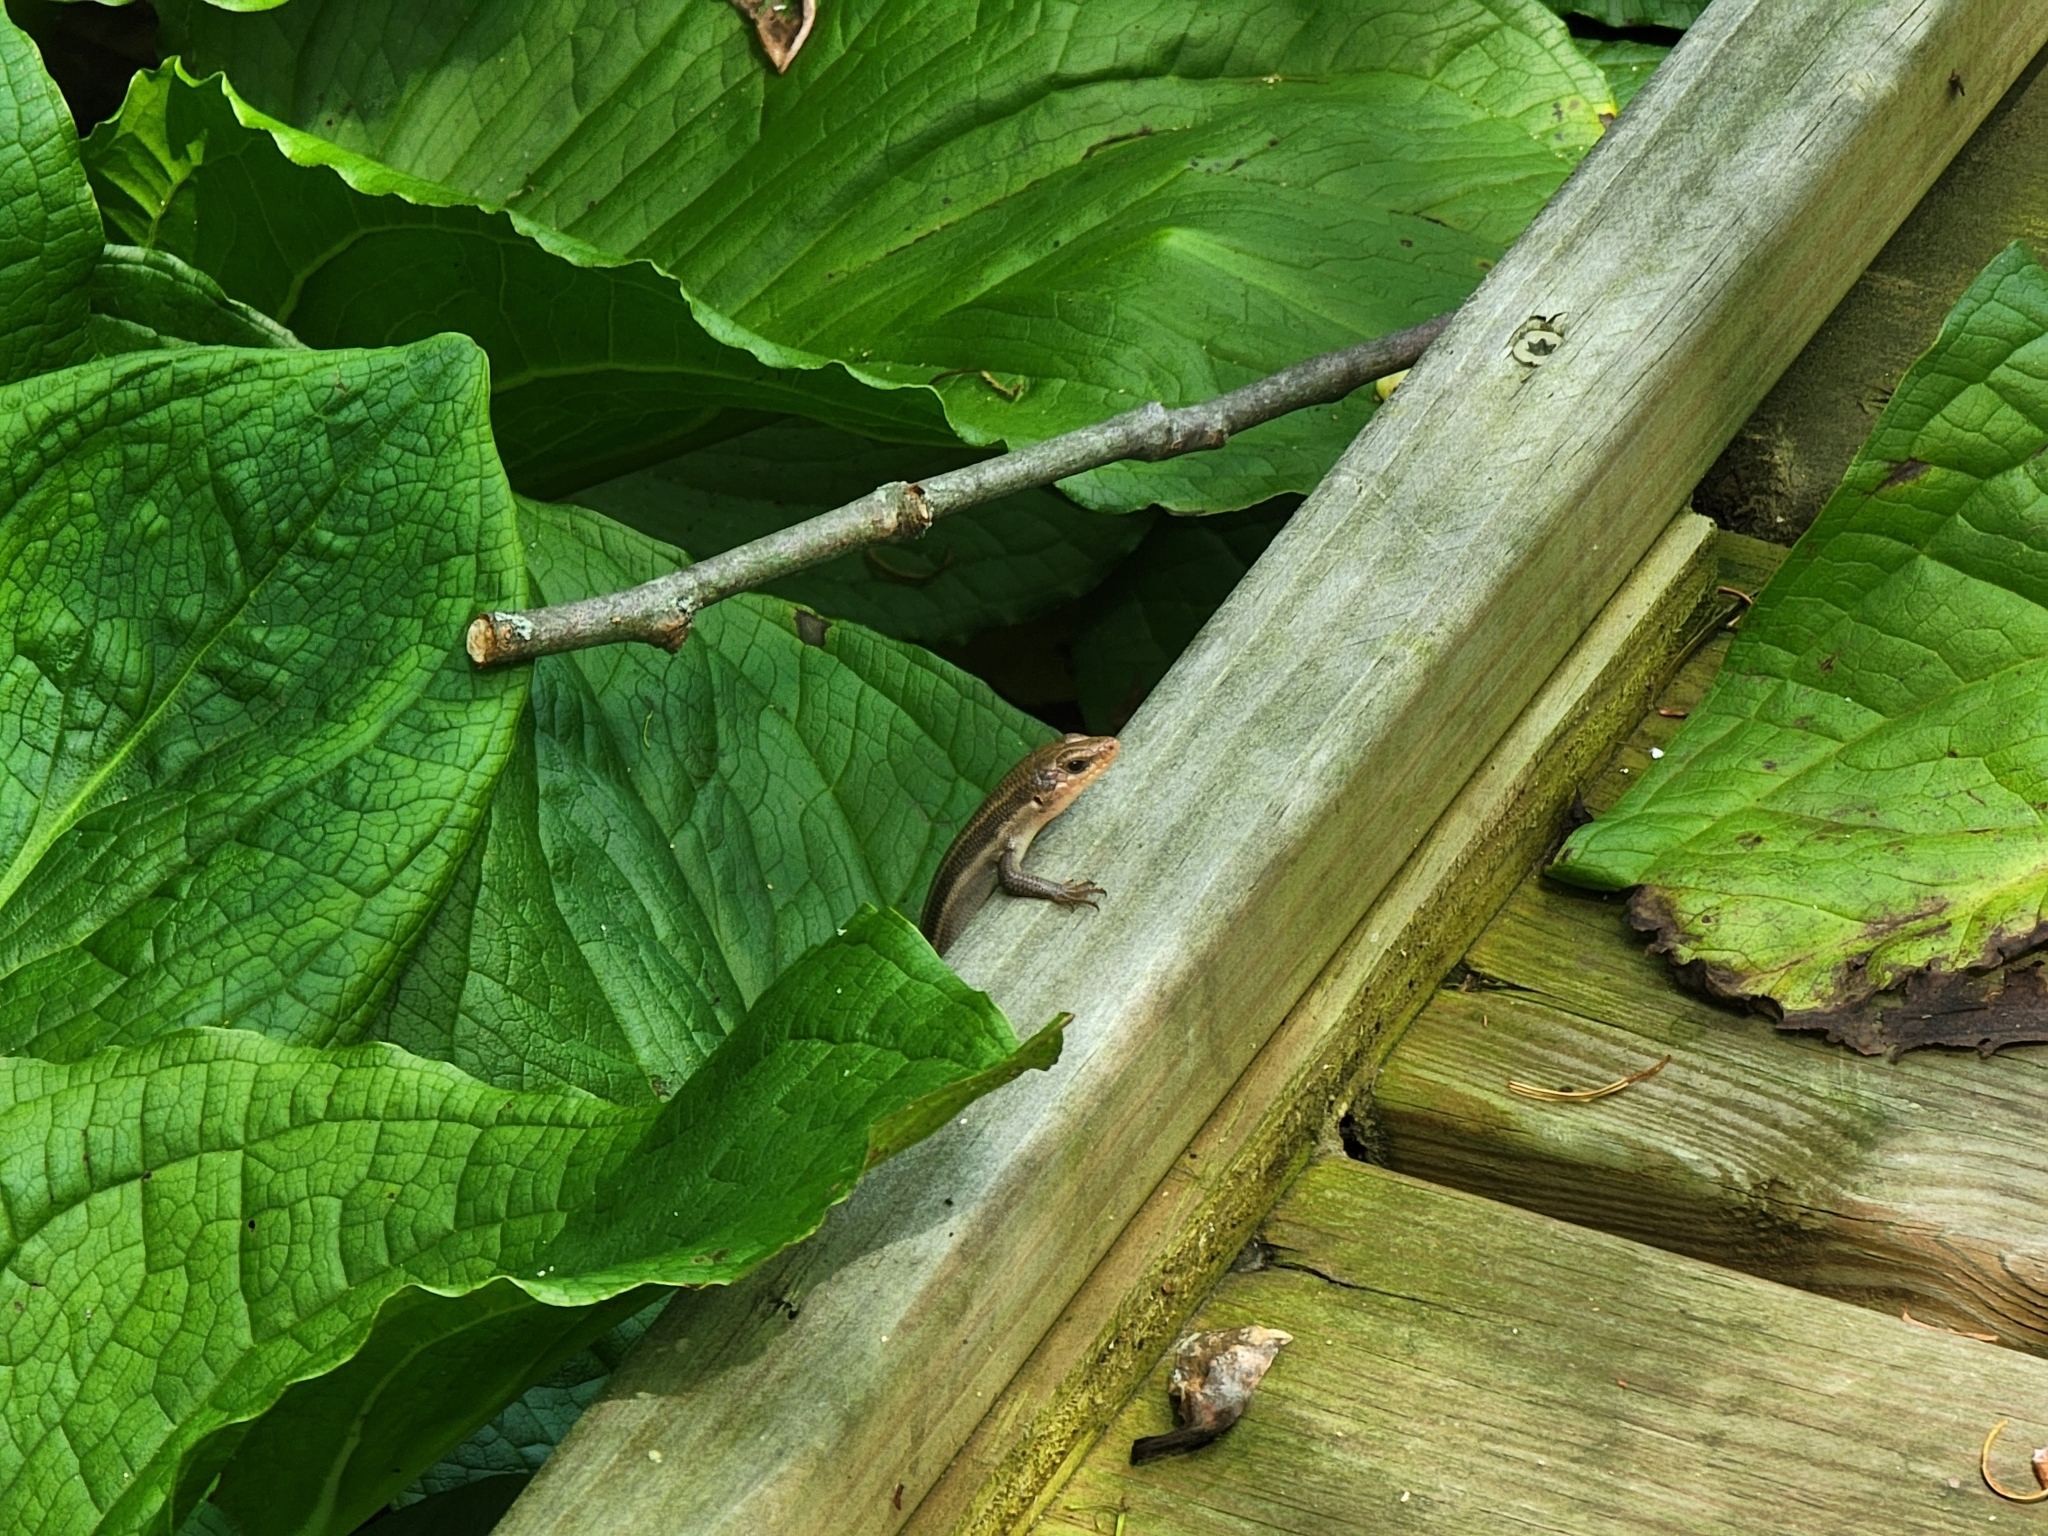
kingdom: Animalia
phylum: Chordata
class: Squamata
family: Scincidae
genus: Plestiodon
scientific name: Plestiodon fasciatus
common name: Five-lined skink
